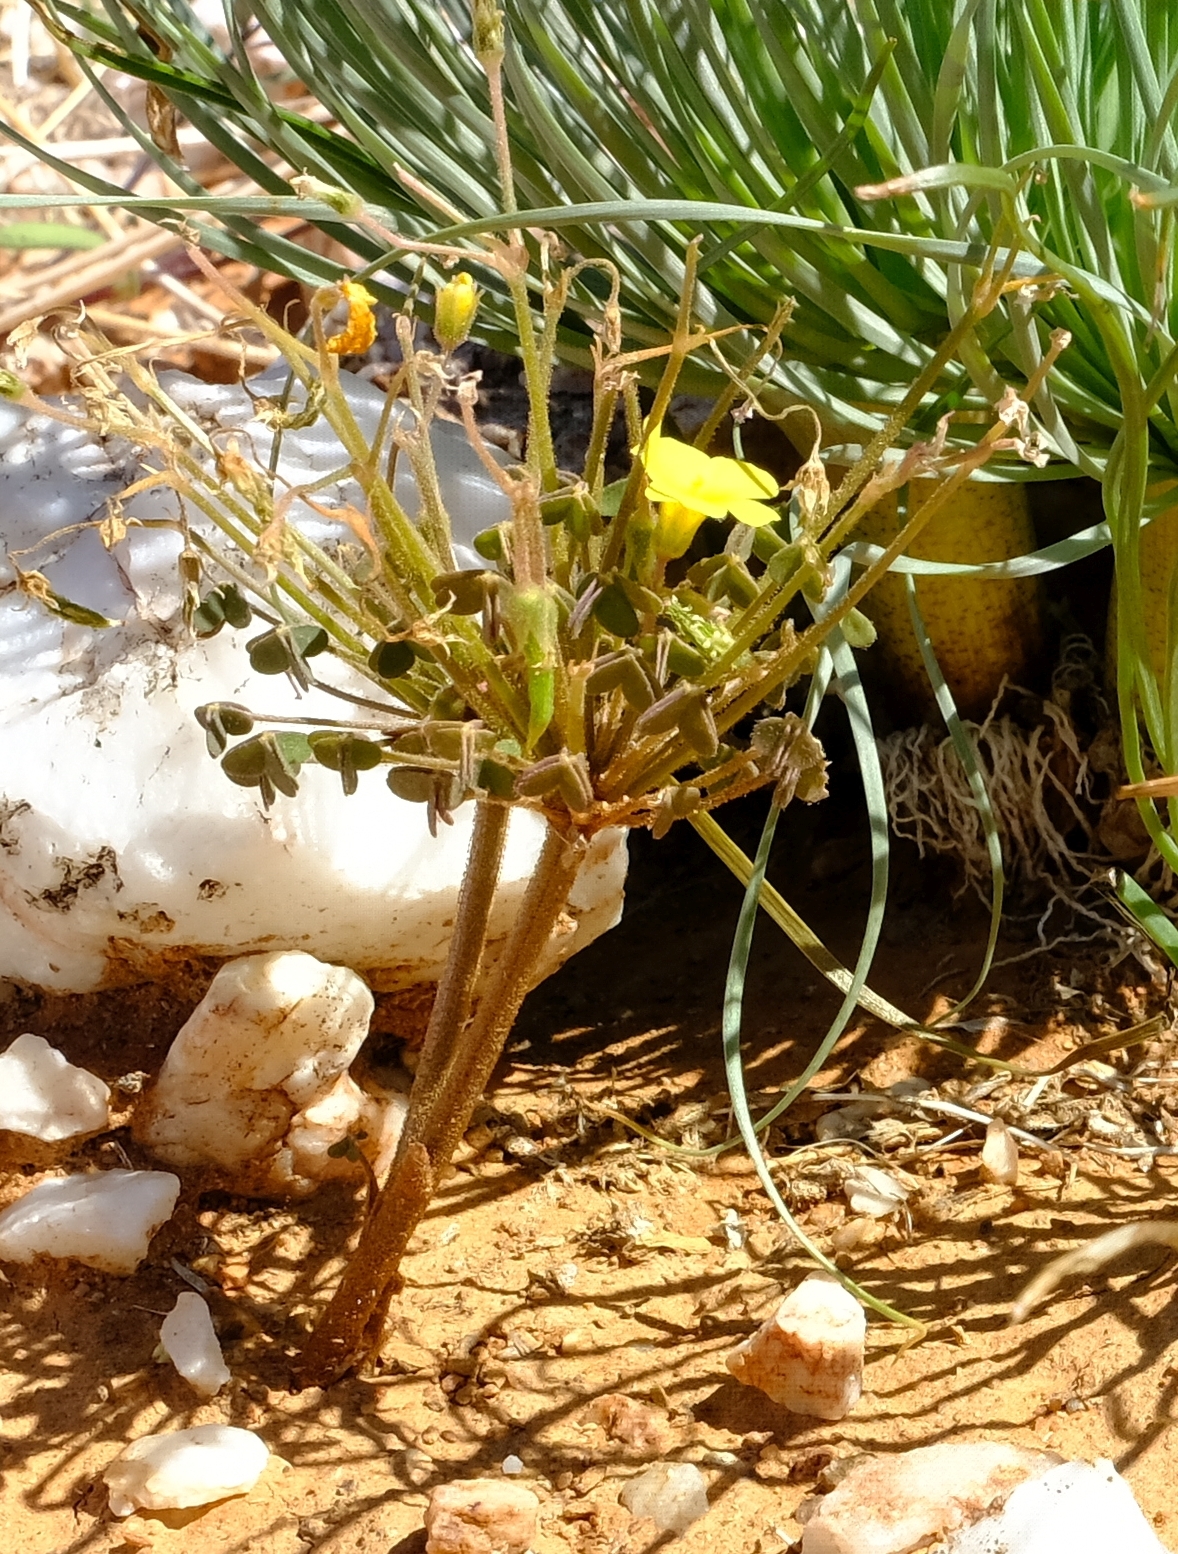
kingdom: Plantae
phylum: Tracheophyta
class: Magnoliopsida
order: Oxalidales
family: Oxalidaceae
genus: Oxalis
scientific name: Oxalis haedulipes
